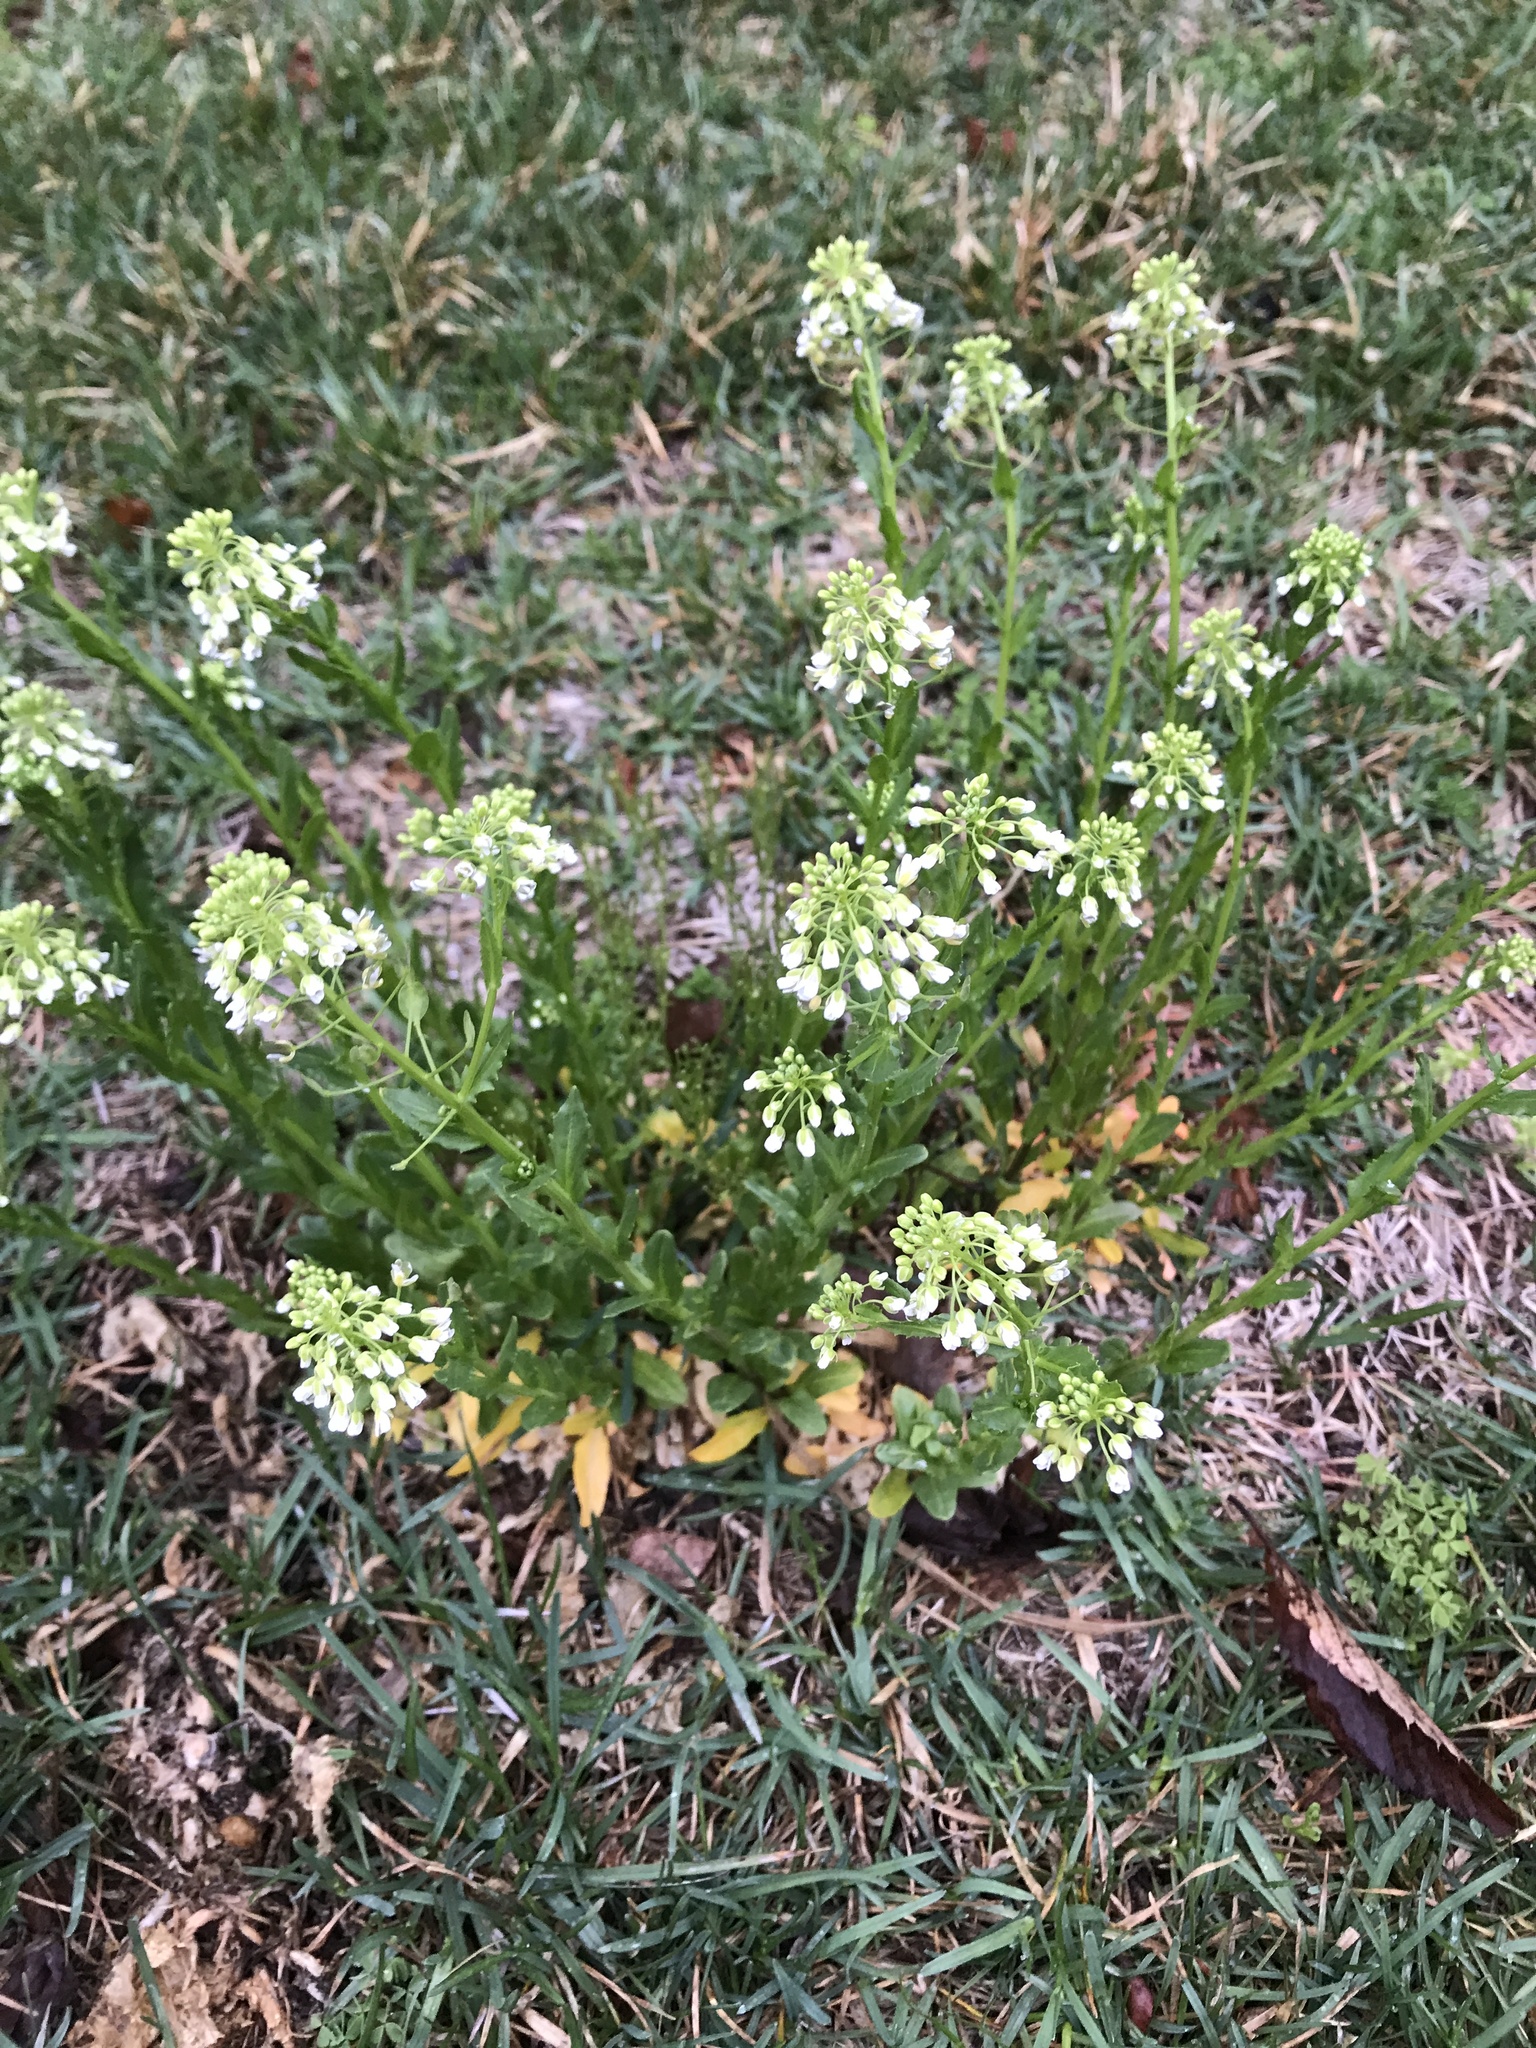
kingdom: Plantae
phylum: Tracheophyta
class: Magnoliopsida
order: Brassicales
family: Brassicaceae
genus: Thlaspi
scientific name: Thlaspi arvense
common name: Field pennycress
